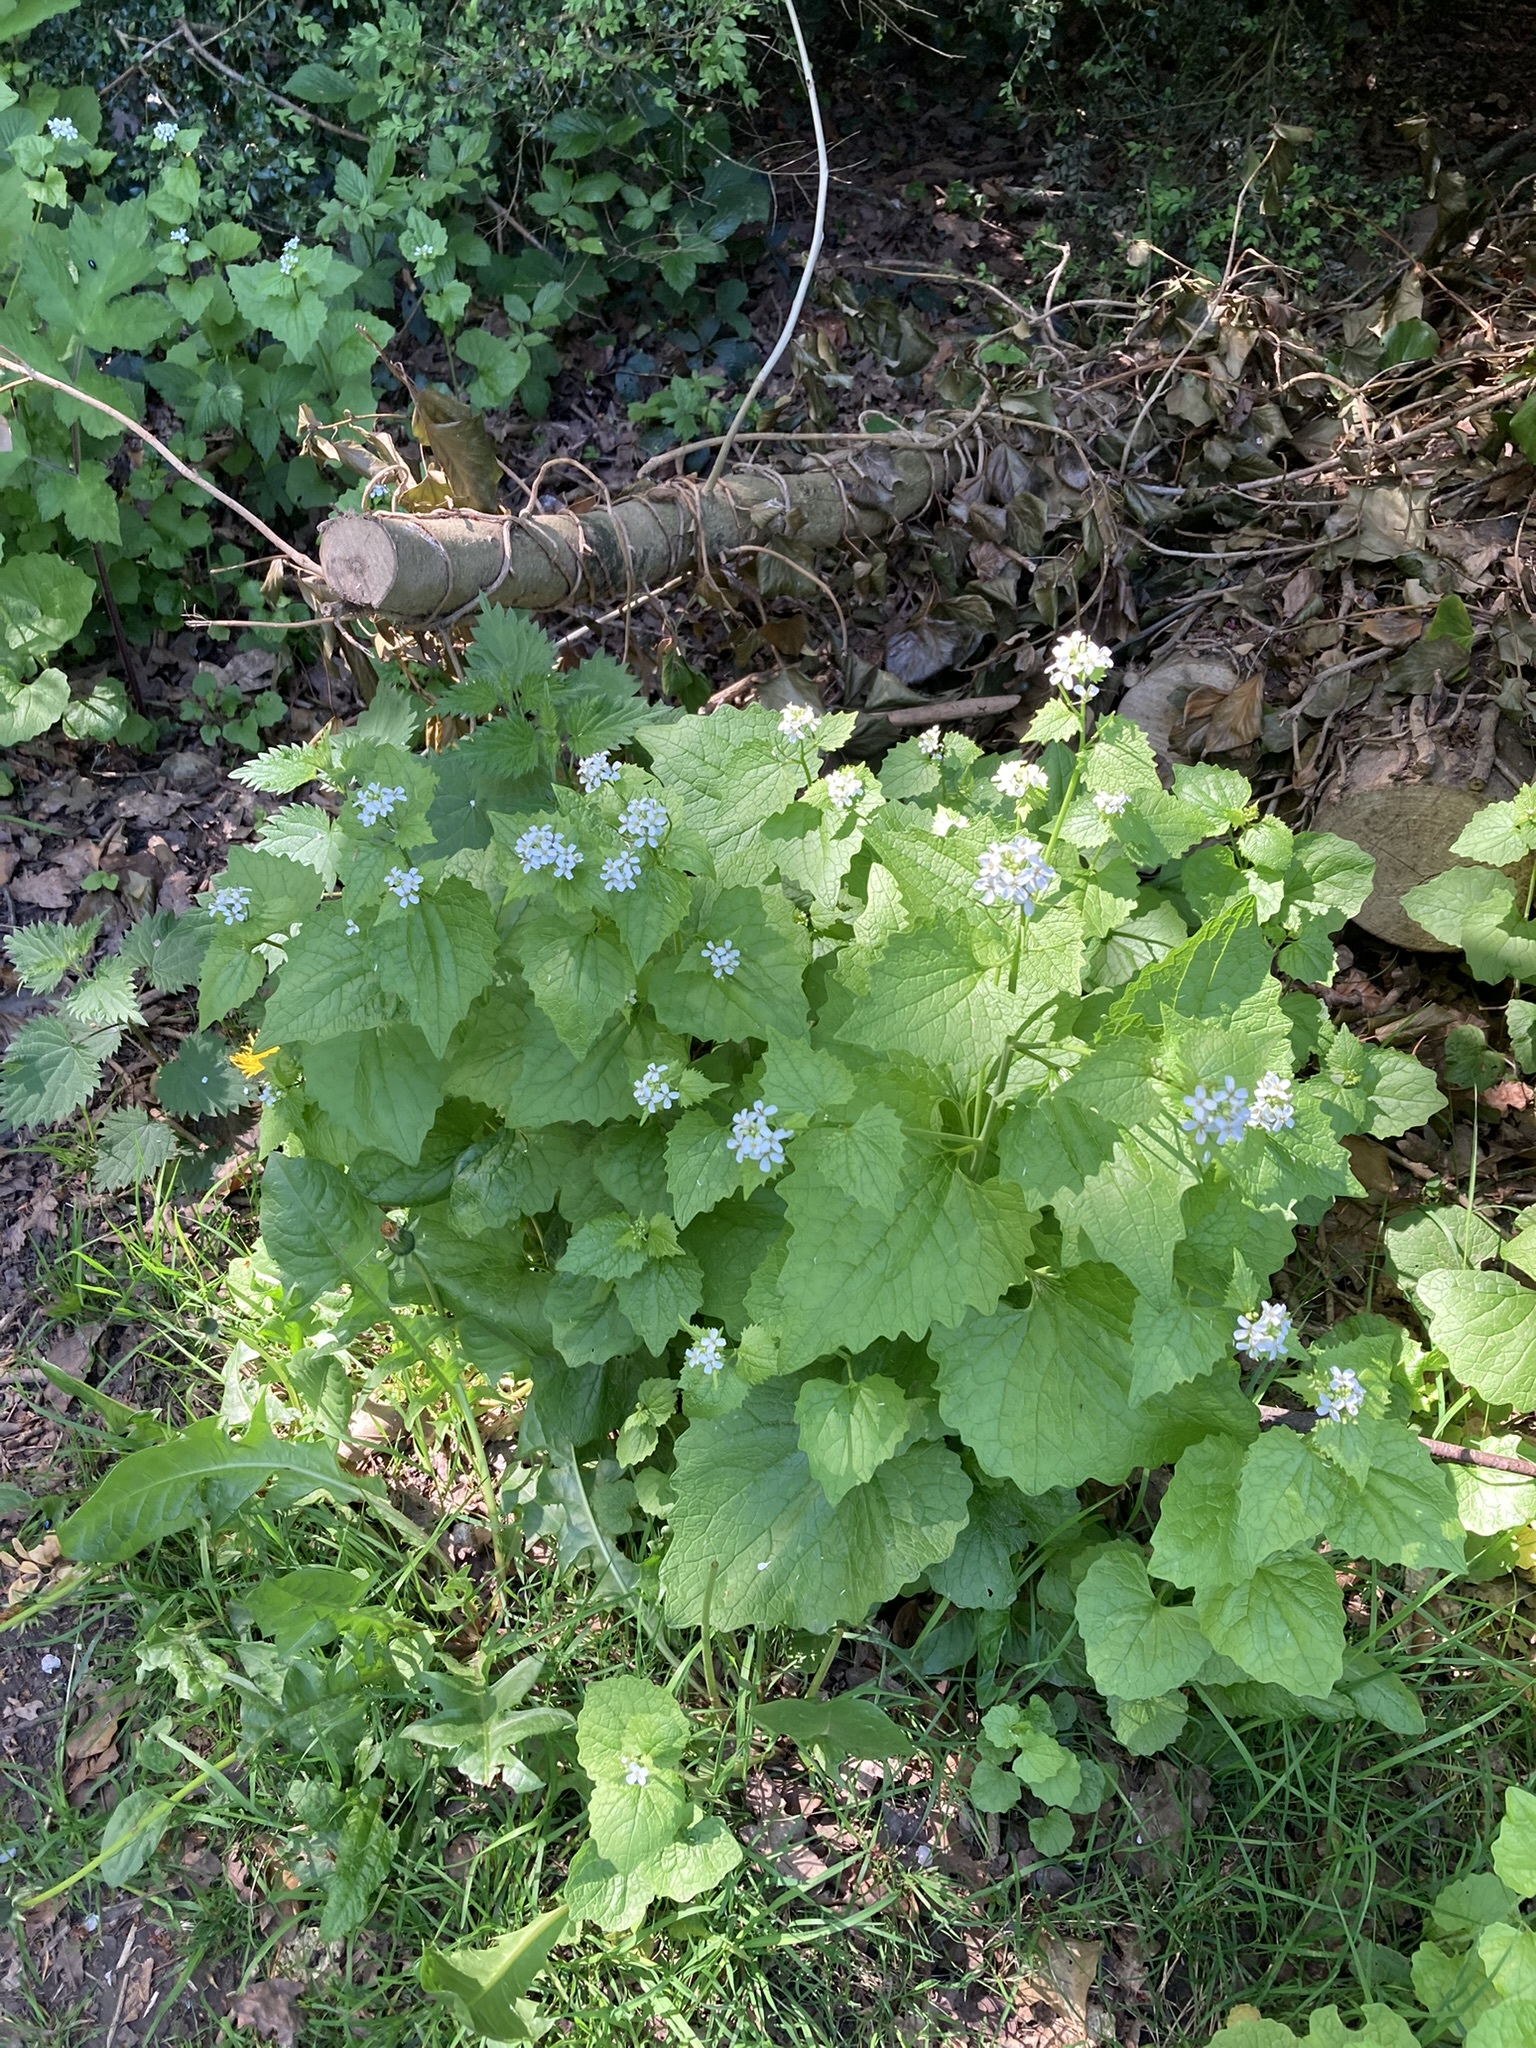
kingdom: Plantae
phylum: Tracheophyta
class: Magnoliopsida
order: Brassicales
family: Brassicaceae
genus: Alliaria
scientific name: Alliaria petiolata
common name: Garlic mustard
